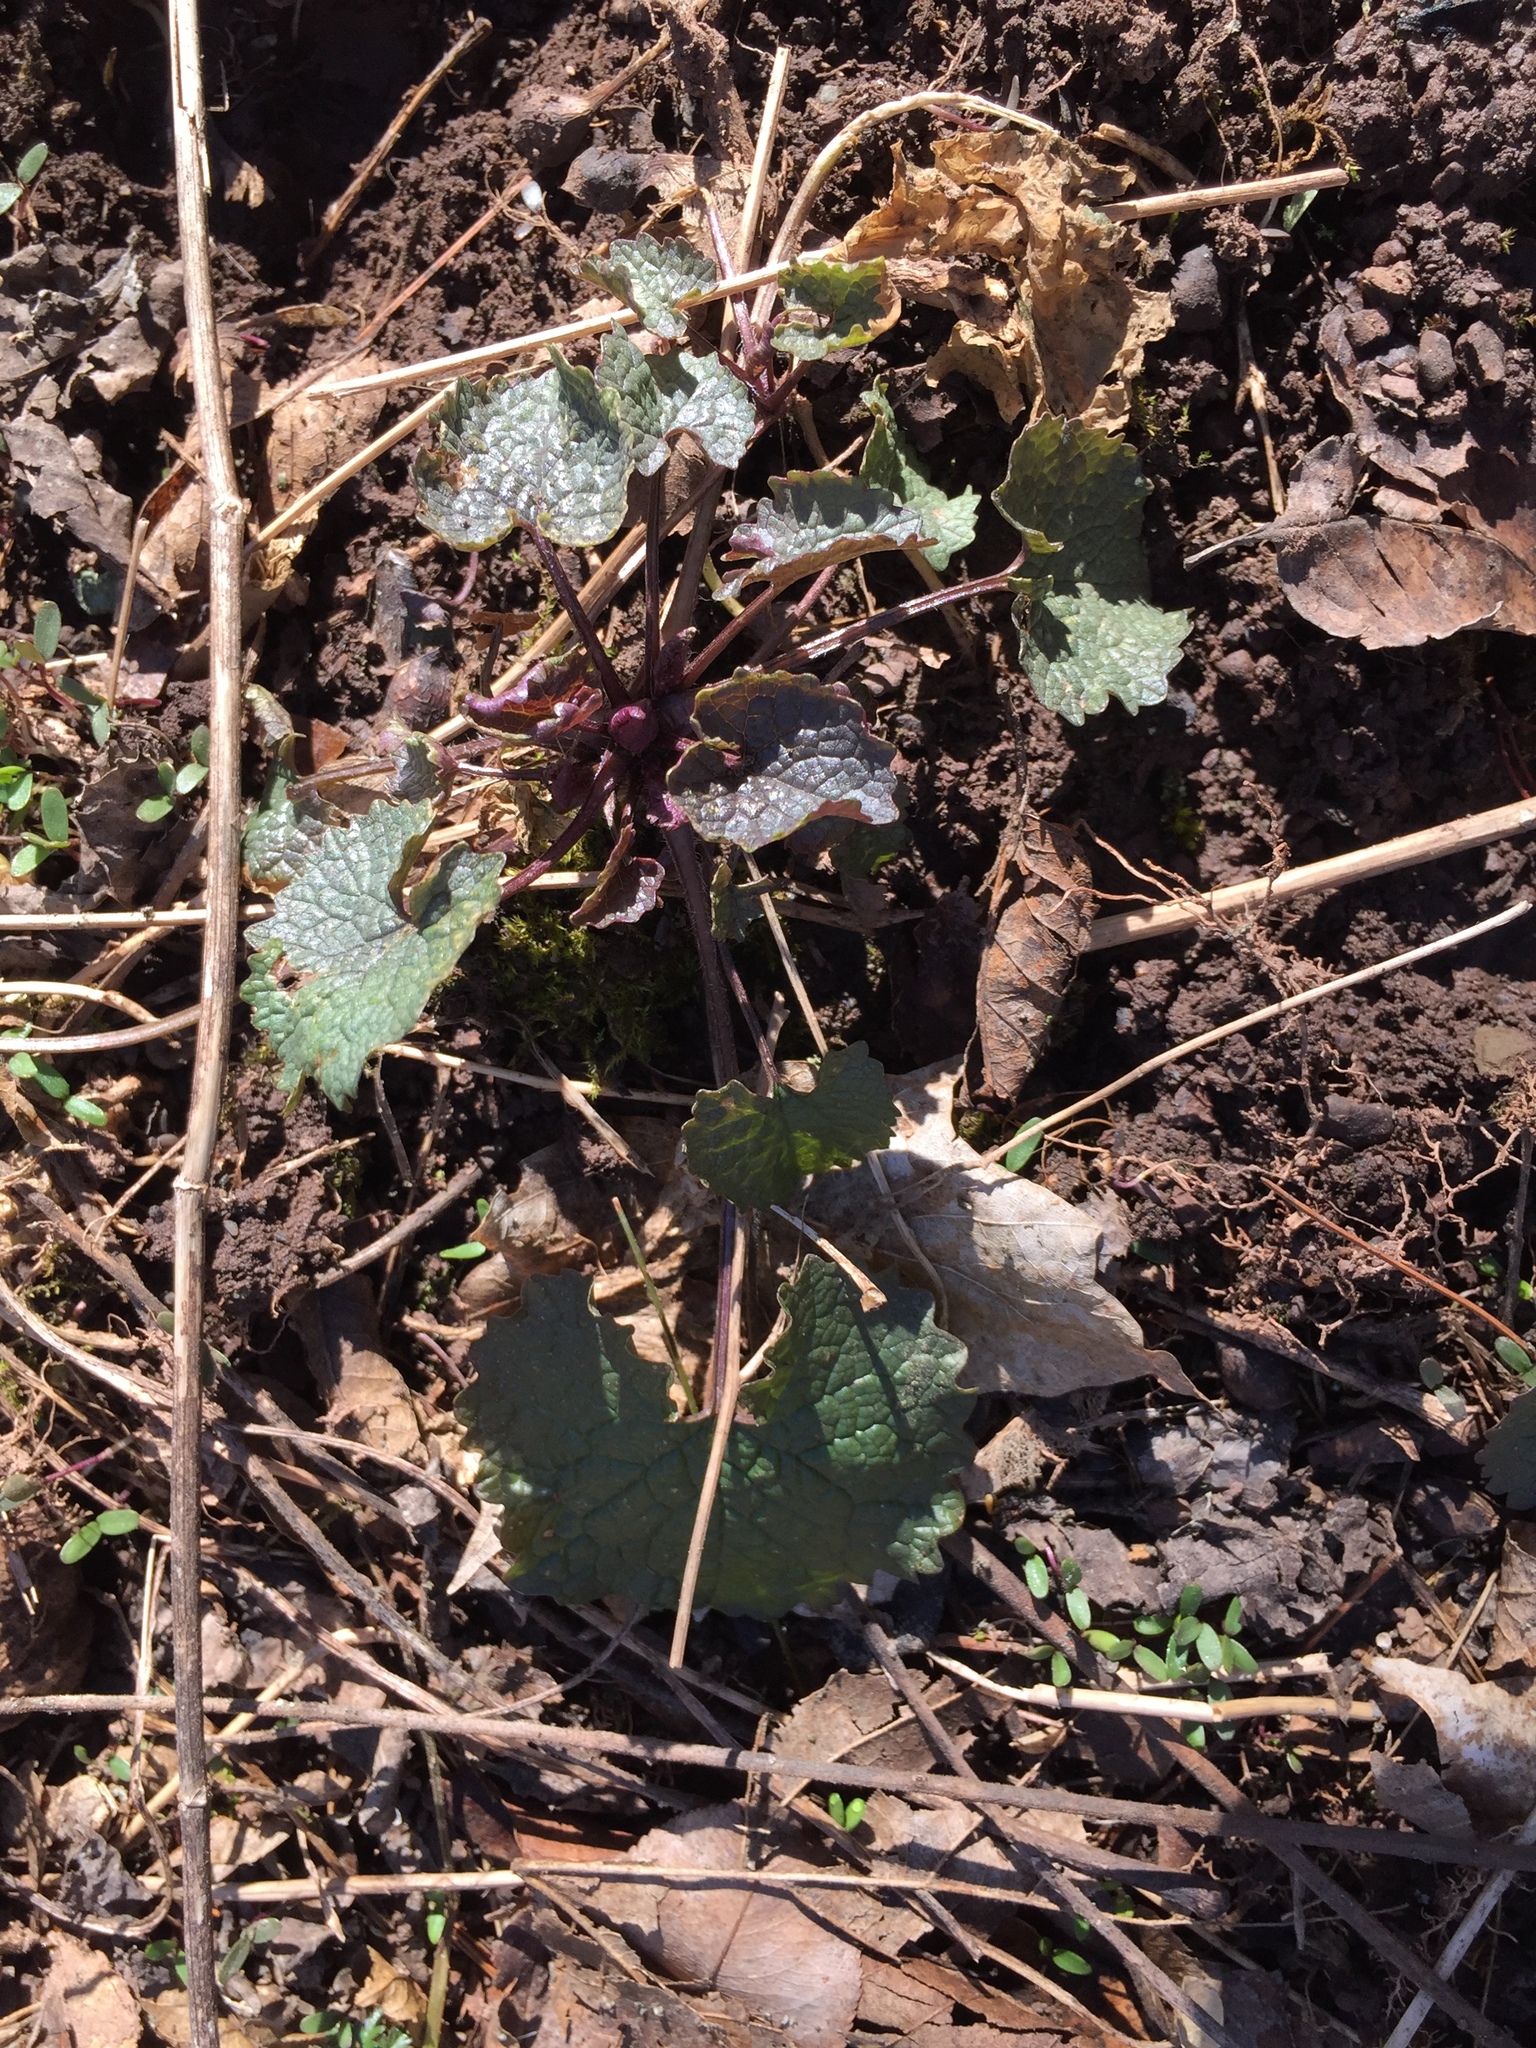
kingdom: Plantae
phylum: Tracheophyta
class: Magnoliopsida
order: Brassicales
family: Brassicaceae
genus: Alliaria
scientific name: Alliaria petiolata
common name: Garlic mustard
